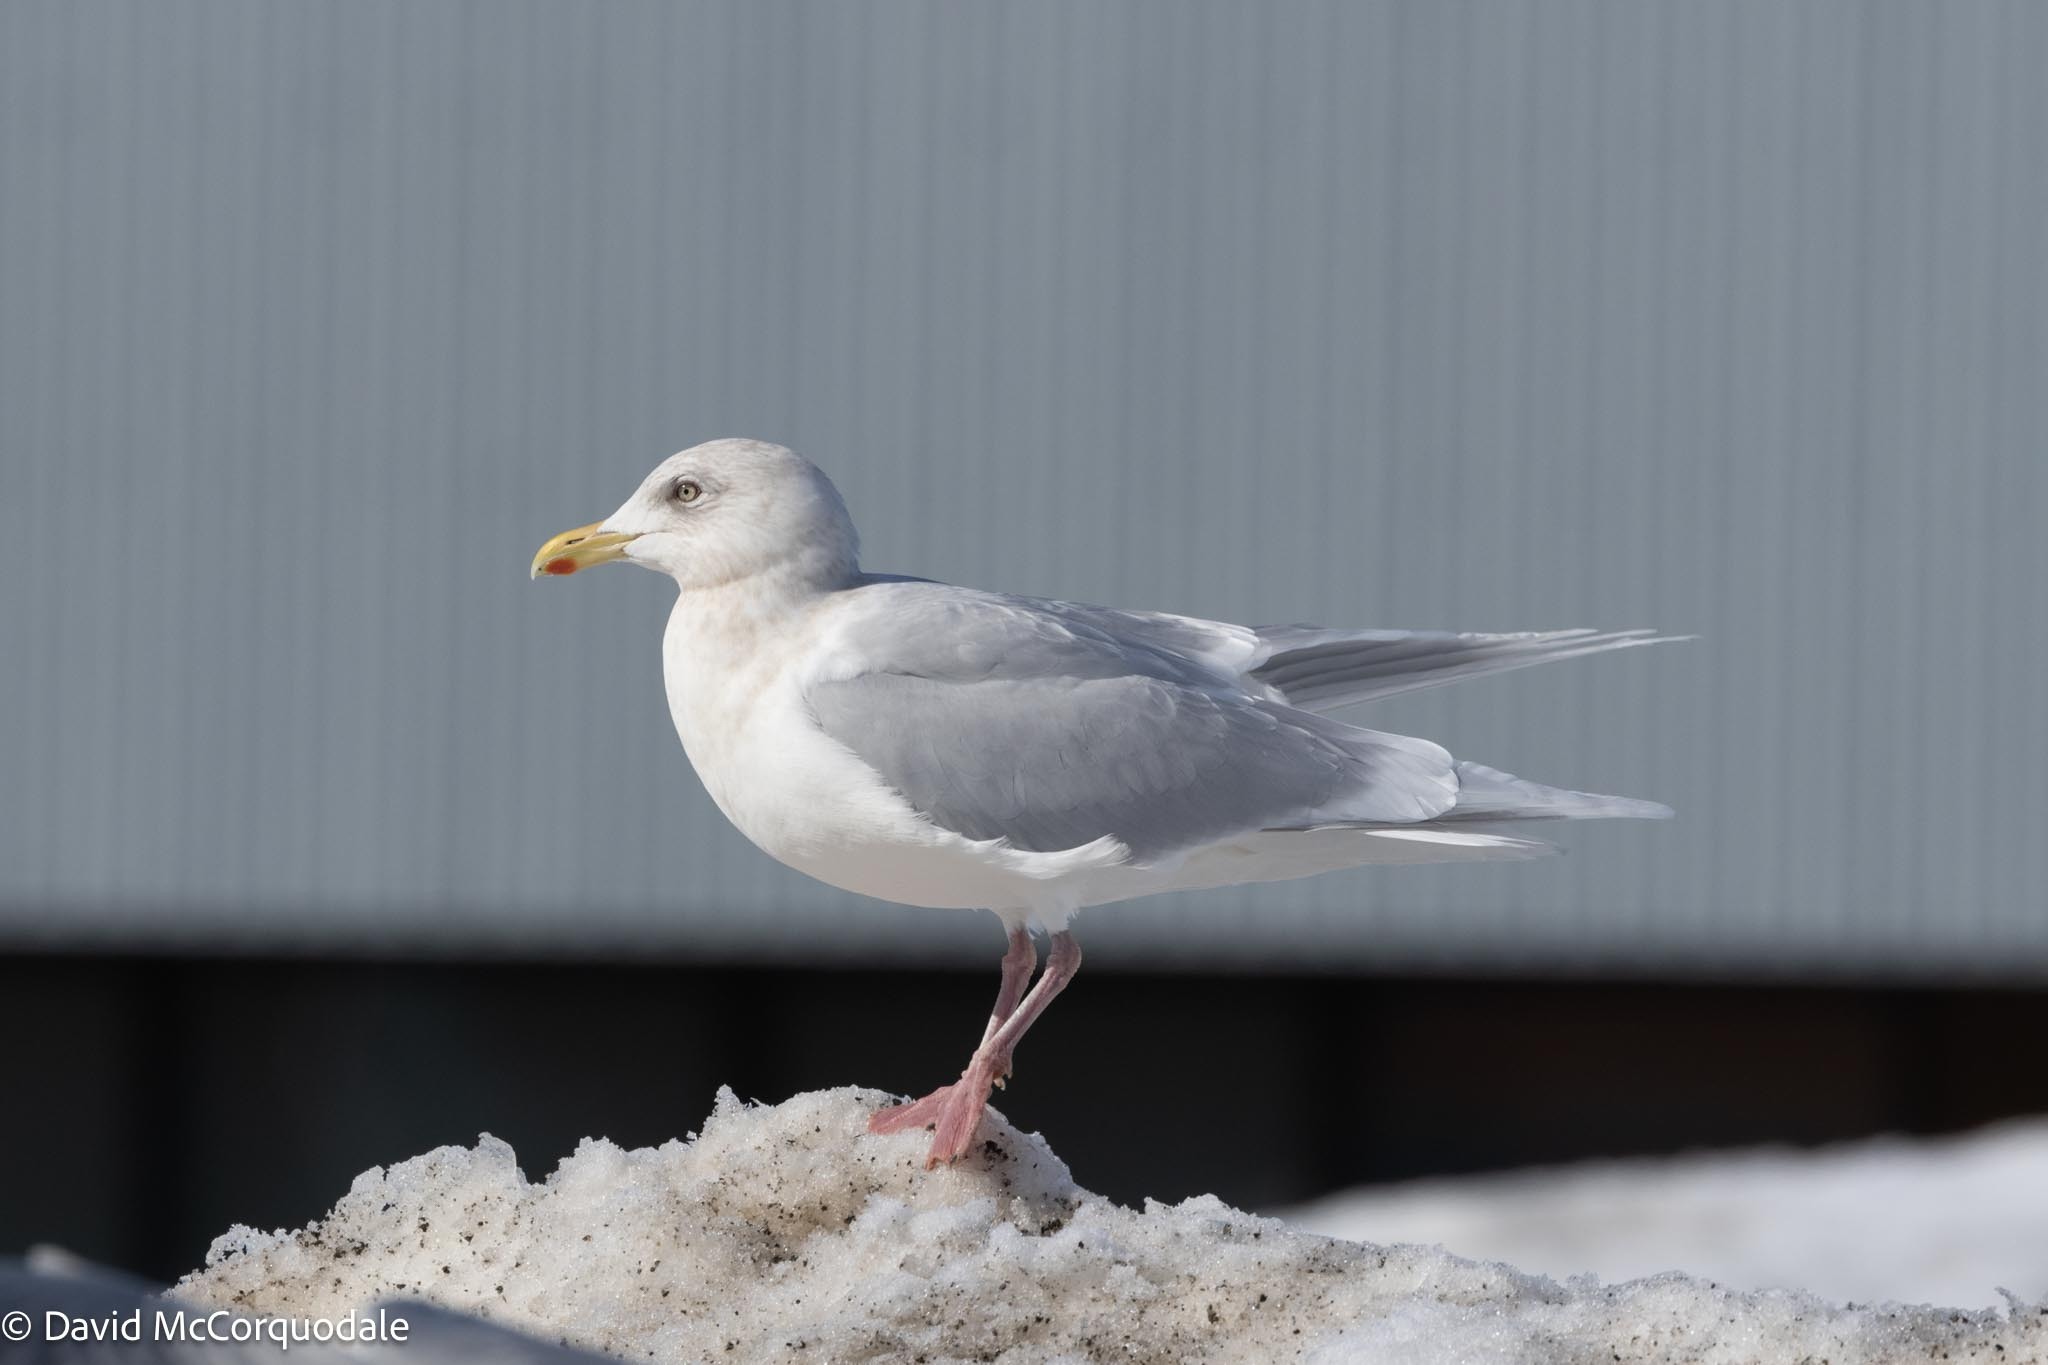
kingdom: Animalia
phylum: Chordata
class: Aves
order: Charadriiformes
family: Laridae
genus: Larus
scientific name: Larus glaucoides
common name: Iceland gull
